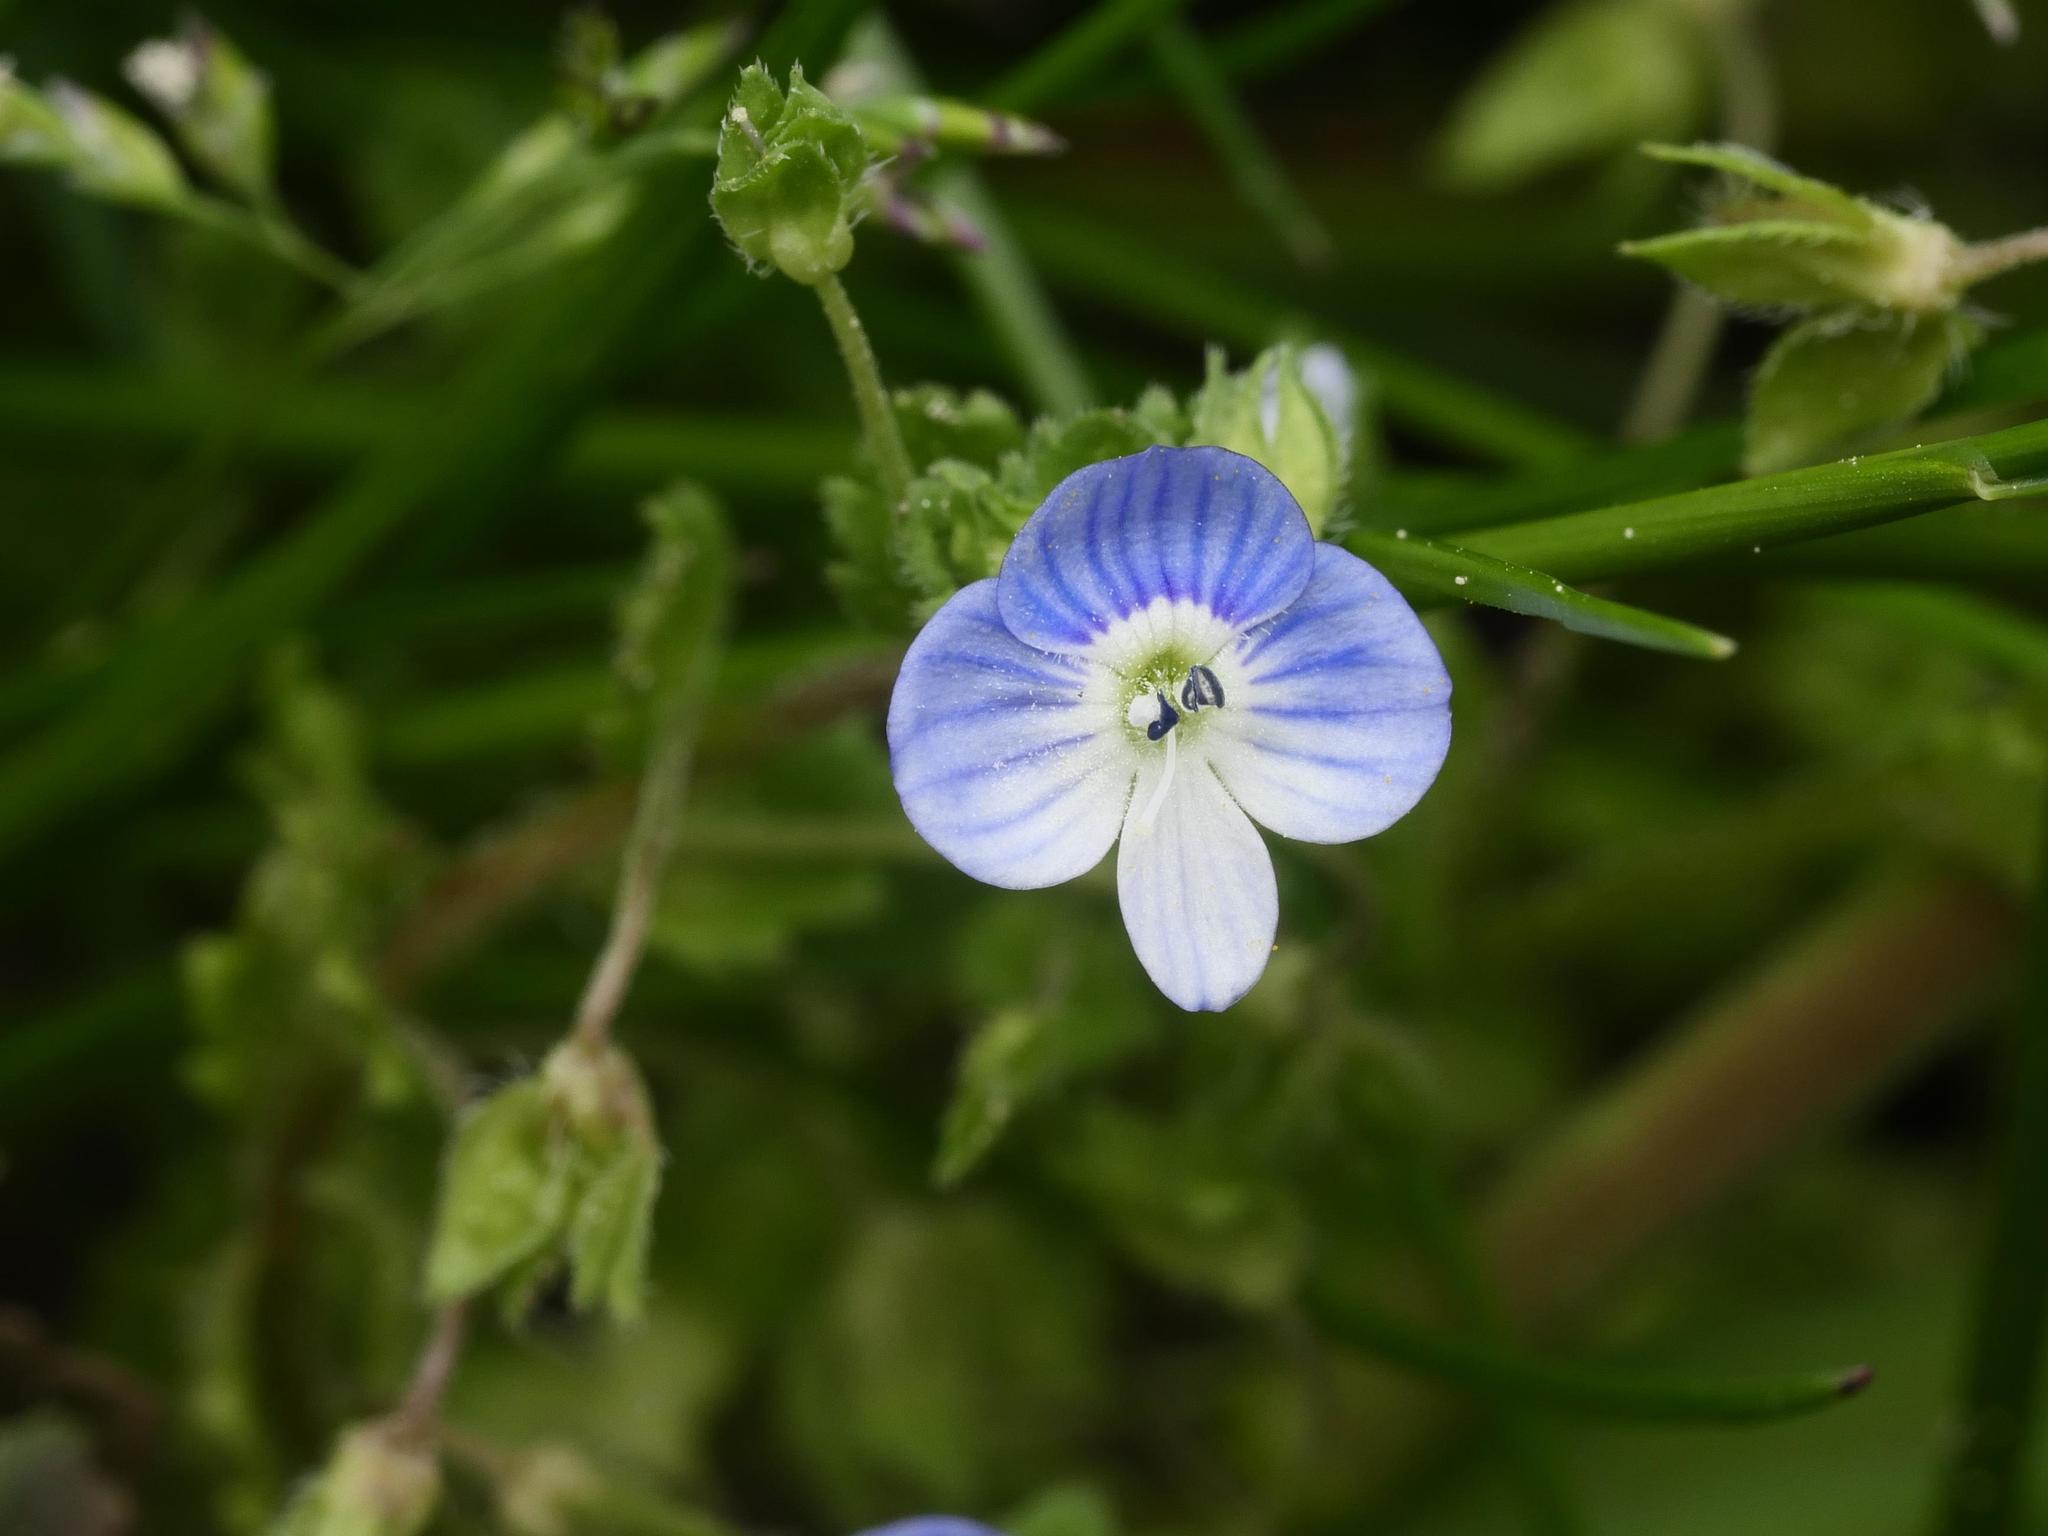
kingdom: Plantae
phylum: Tracheophyta
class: Magnoliopsida
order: Lamiales
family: Plantaginaceae
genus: Veronica
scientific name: Veronica persica
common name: Common field-speedwell
